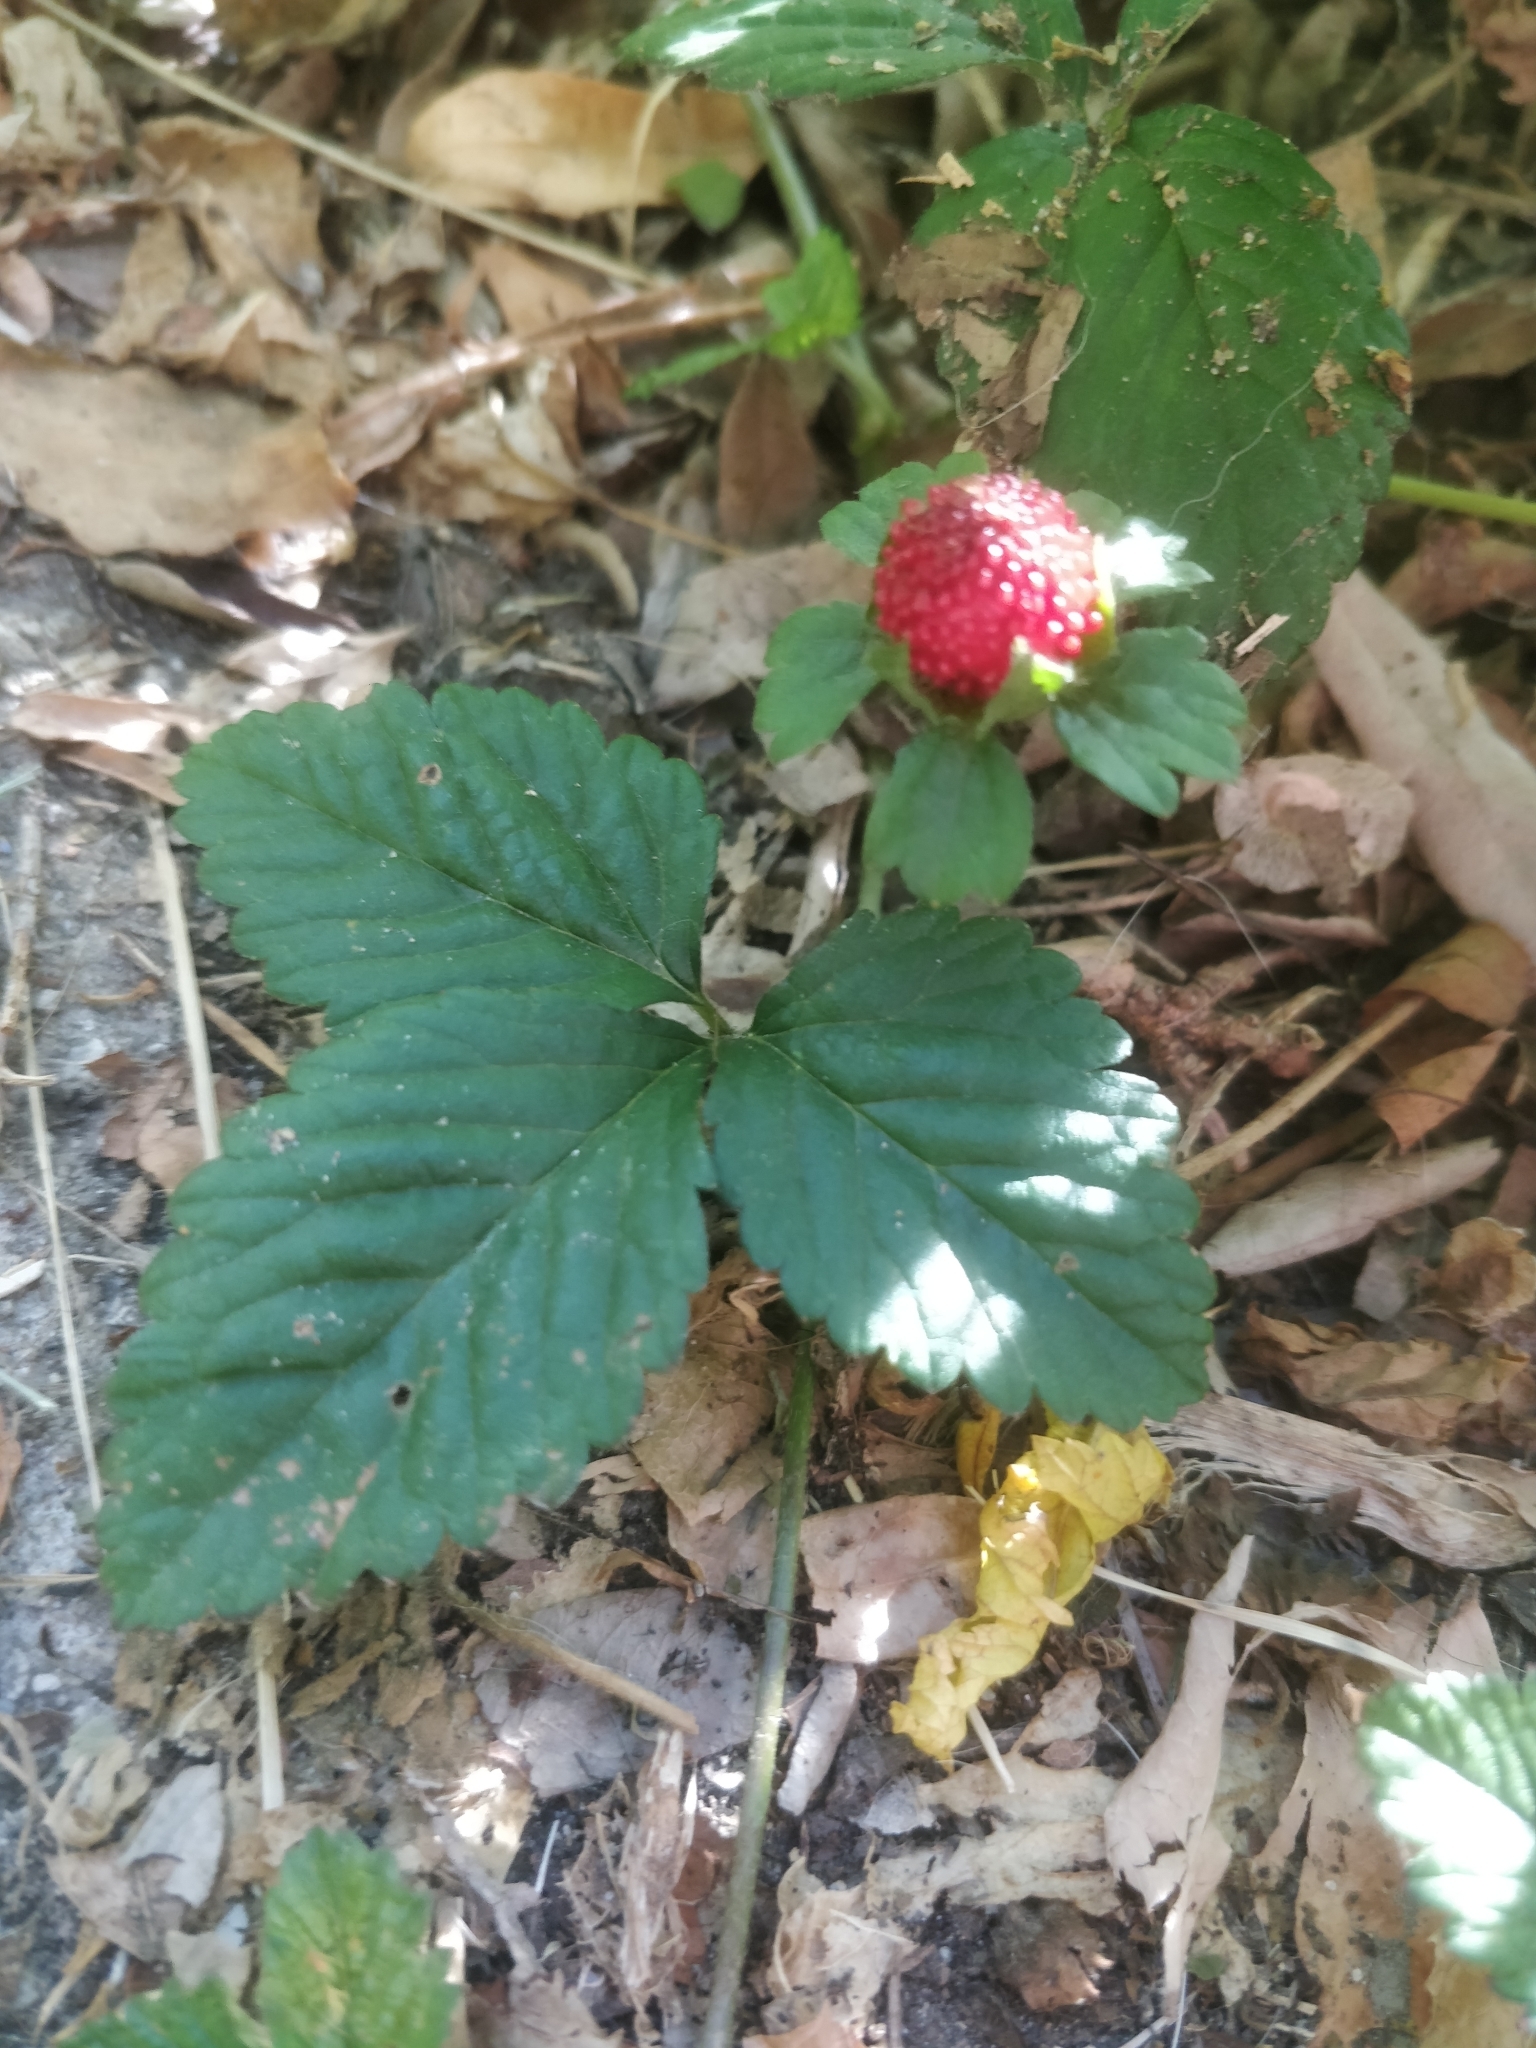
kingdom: Plantae
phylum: Tracheophyta
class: Magnoliopsida
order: Rosales
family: Rosaceae
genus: Potentilla
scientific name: Potentilla indica
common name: Yellow-flowered strawberry
